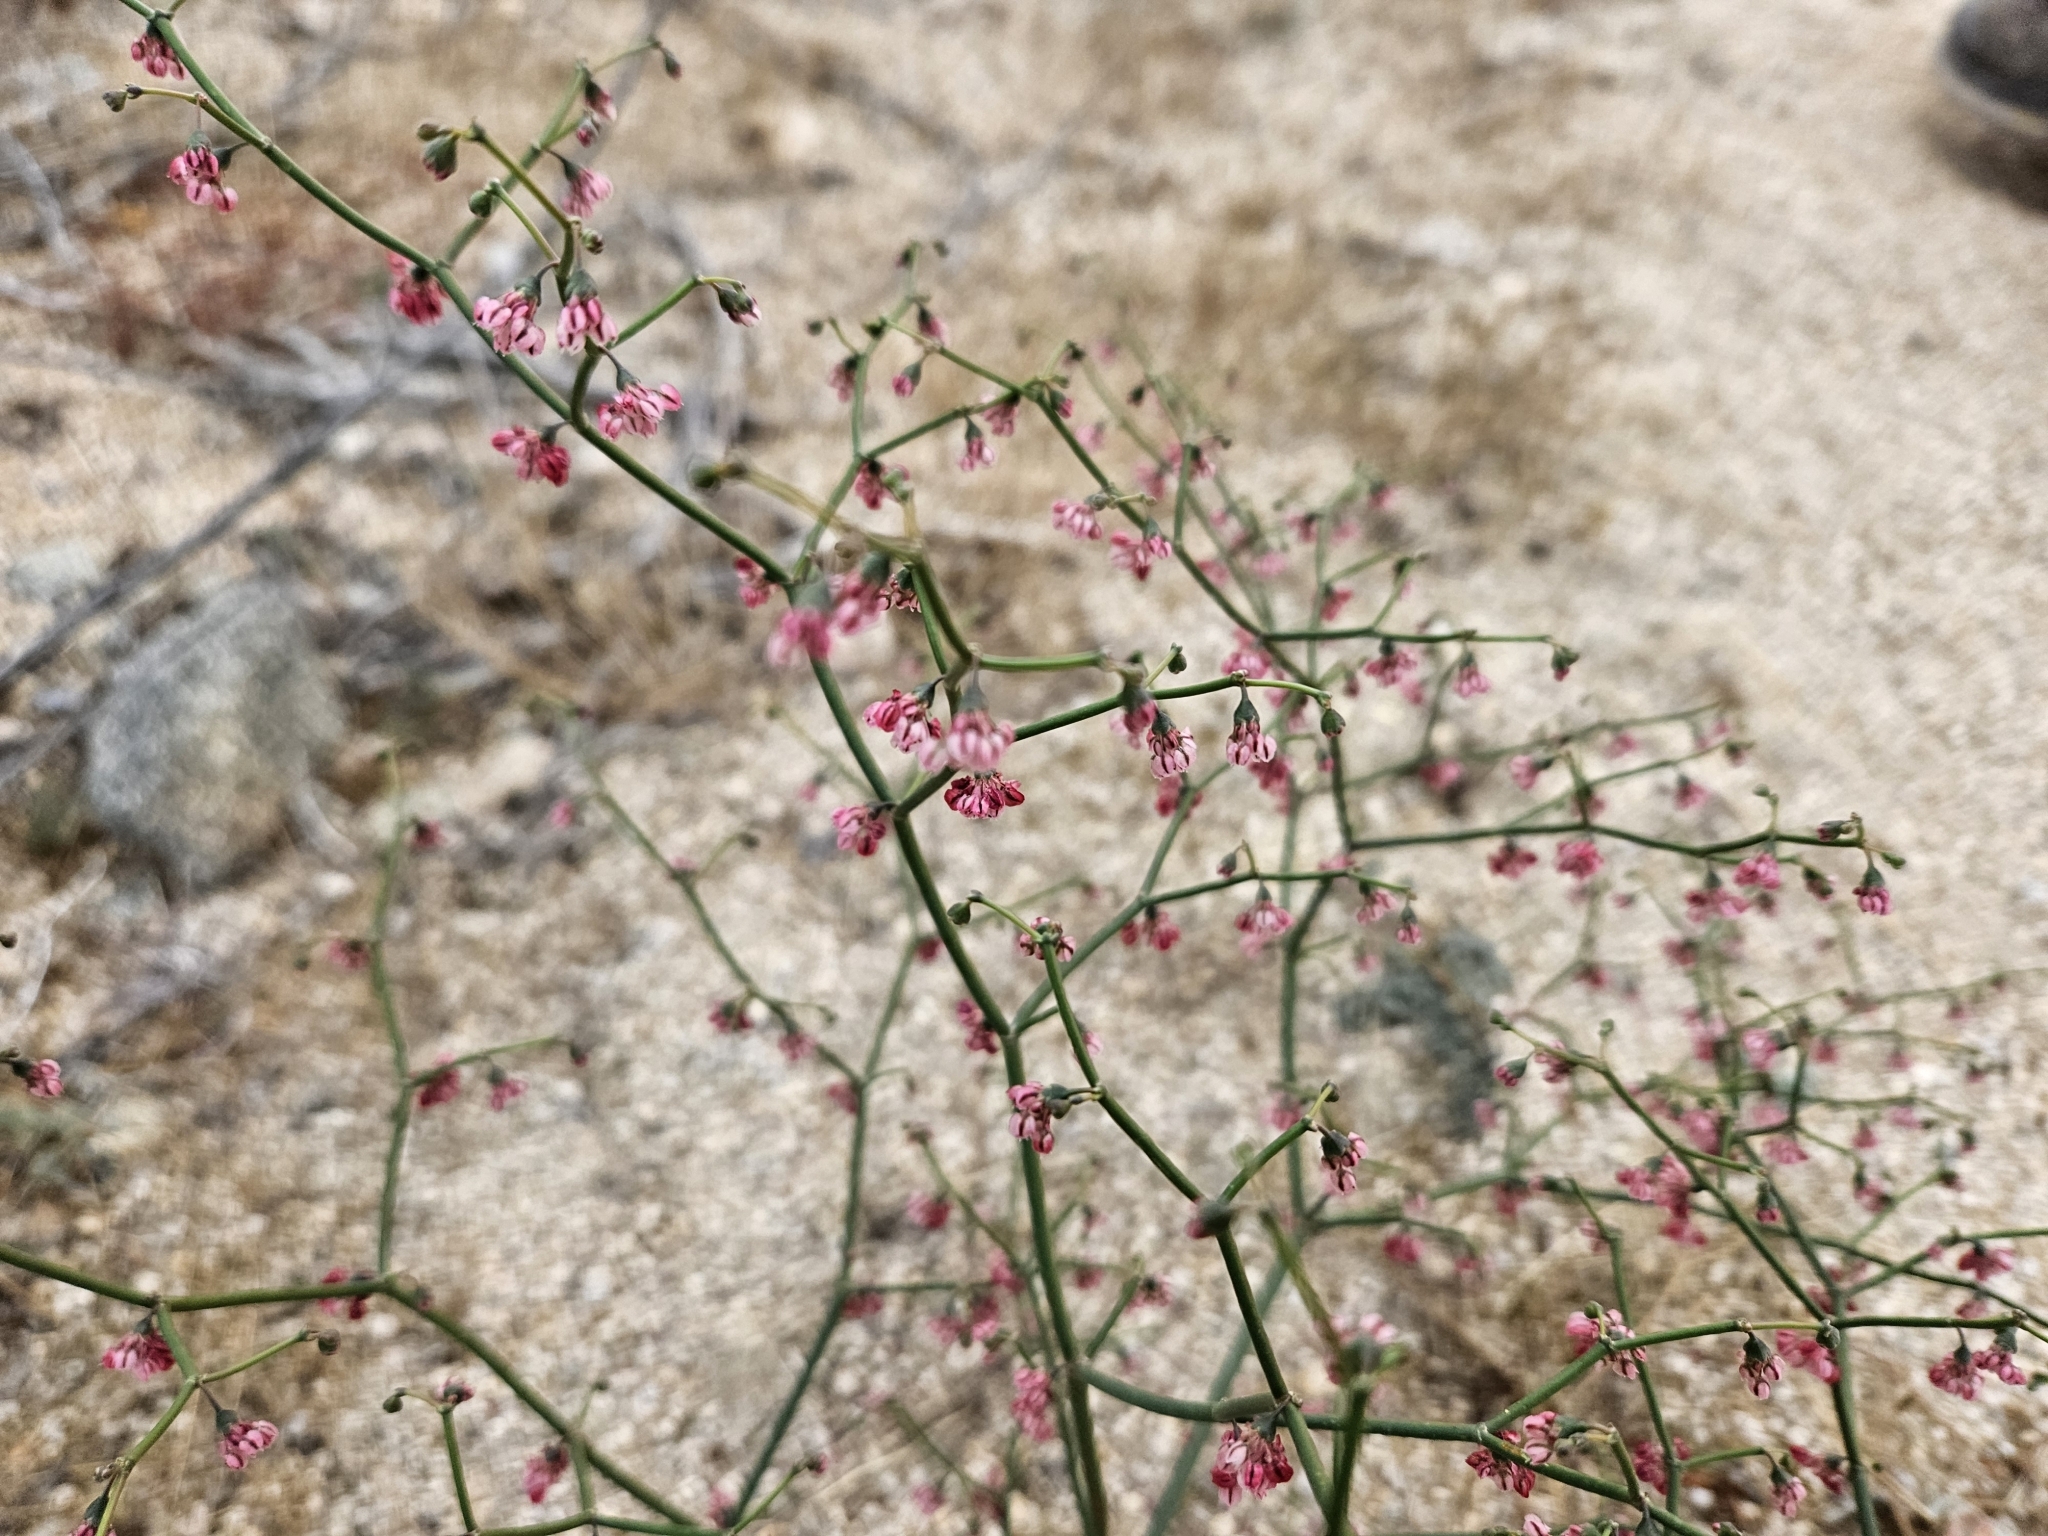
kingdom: Plantae
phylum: Tracheophyta
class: Magnoliopsida
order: Caryophyllales
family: Polygonaceae
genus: Eriogonum
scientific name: Eriogonum deflexum
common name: Skeleton-weed
